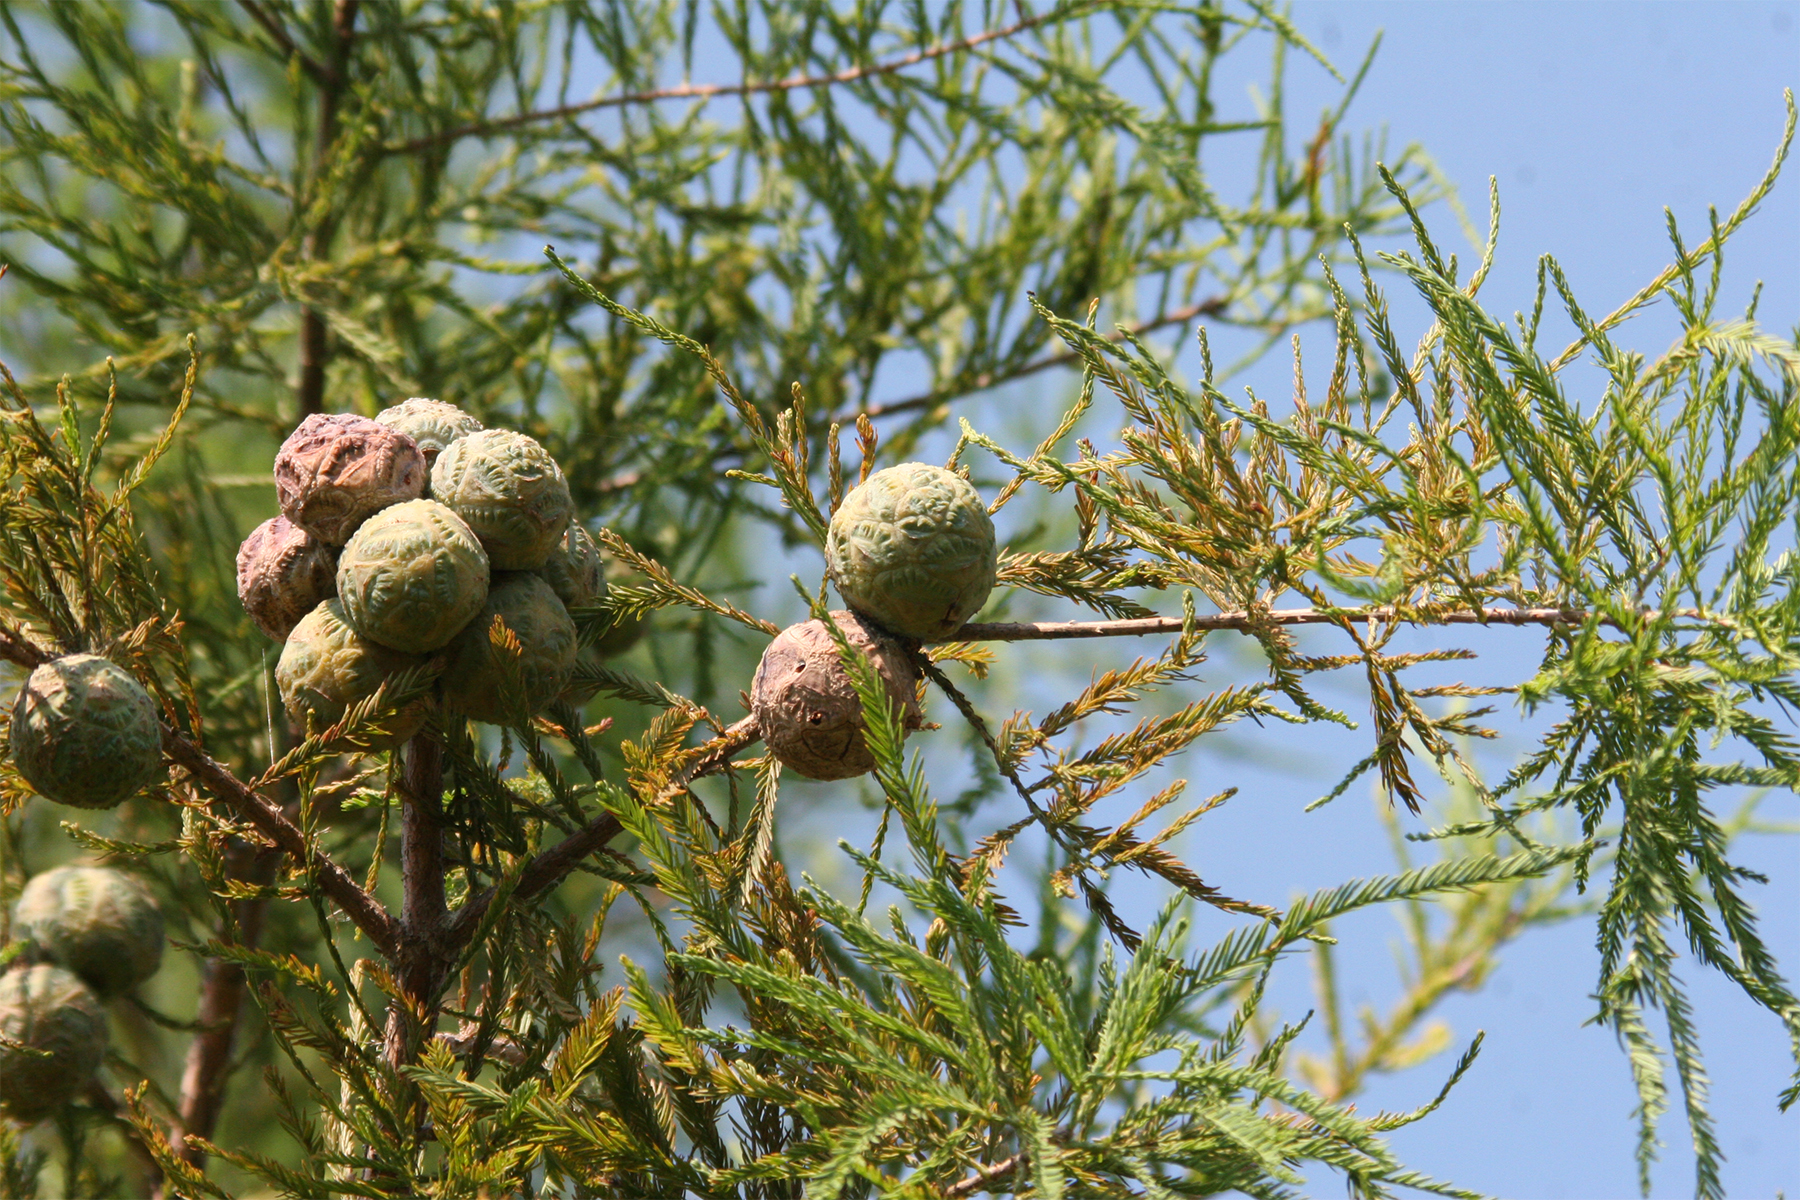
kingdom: Plantae
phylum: Tracheophyta
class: Pinopsida
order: Pinales
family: Cupressaceae
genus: Taxodium
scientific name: Taxodium distichum
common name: Bald cypress
